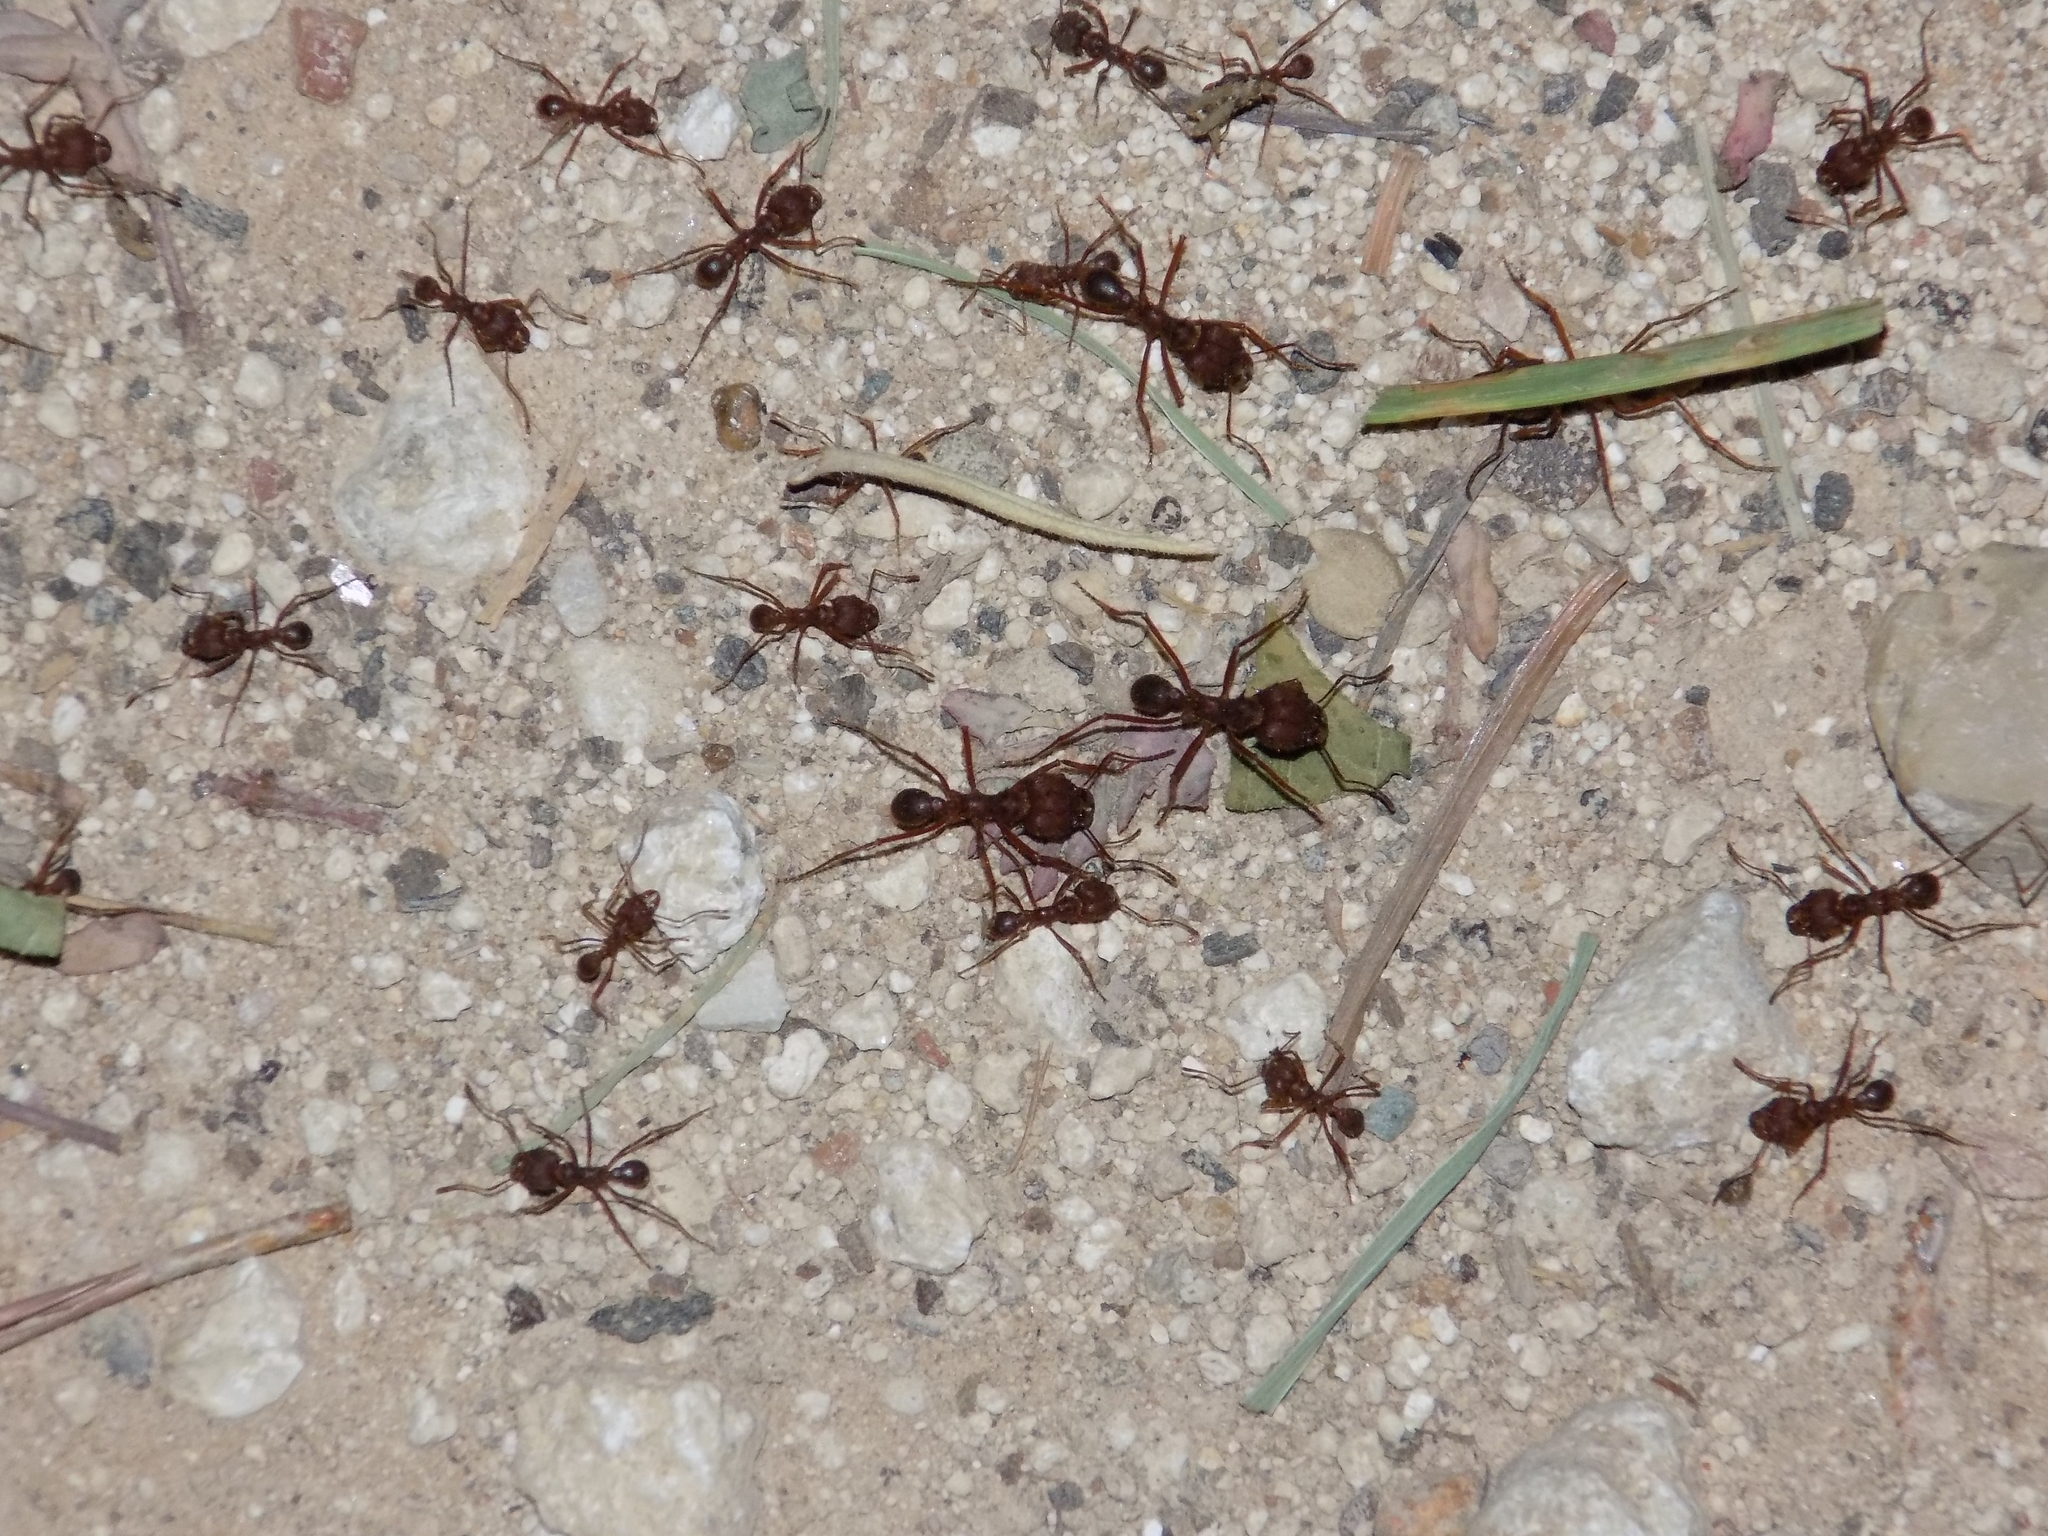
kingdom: Animalia
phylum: Arthropoda
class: Insecta
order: Hymenoptera
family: Formicidae
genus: Atta
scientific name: Atta texana
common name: Texas leafcutting ant
